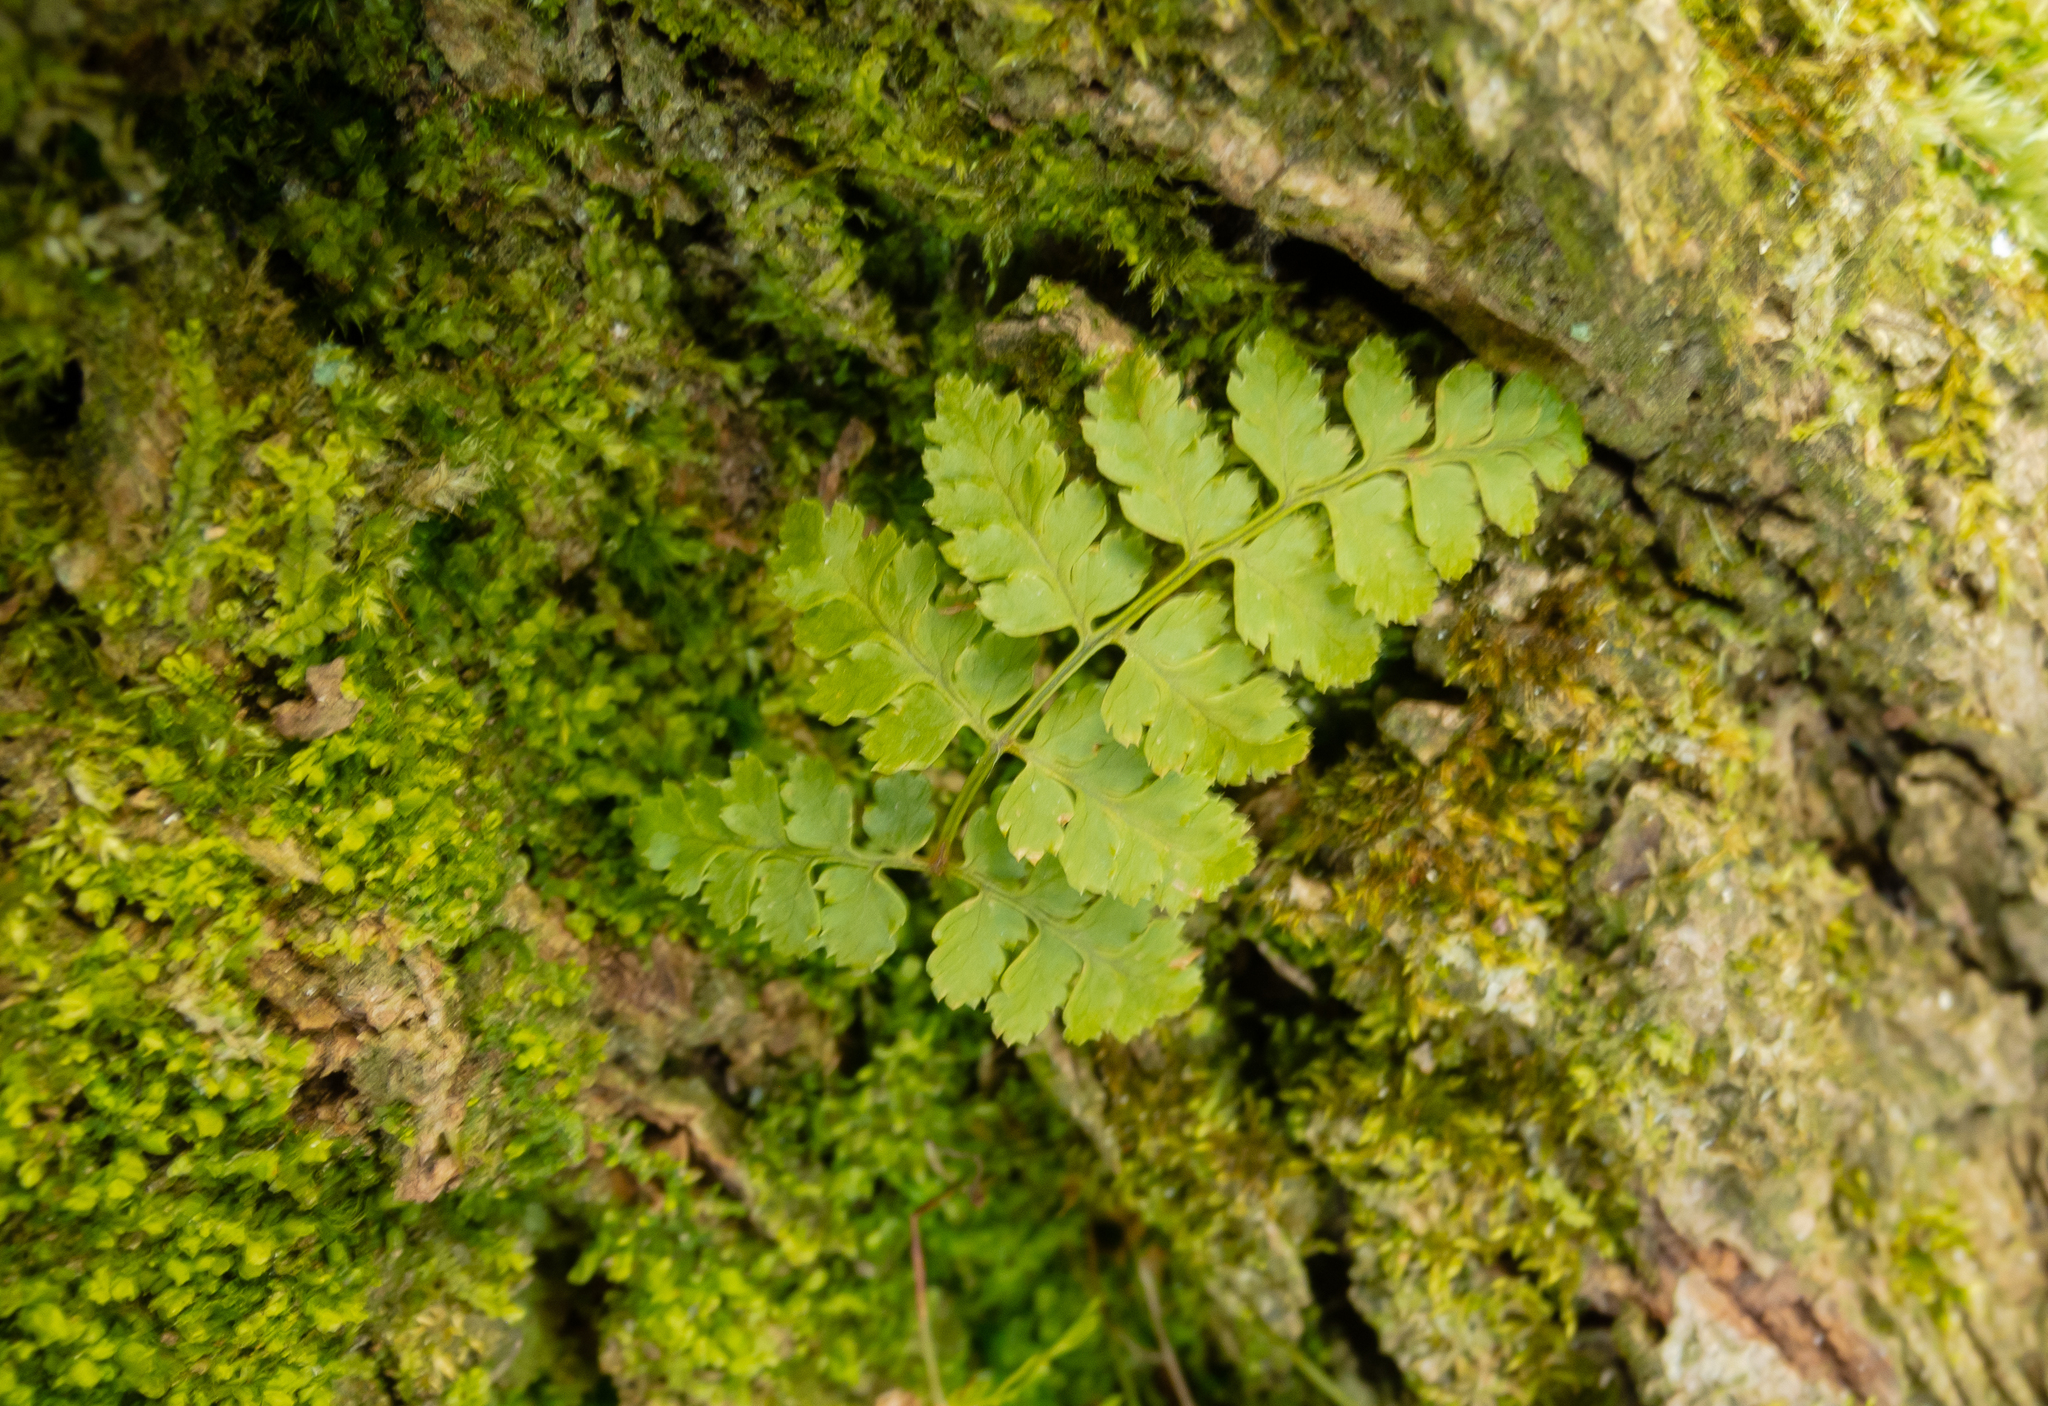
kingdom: Plantae
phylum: Tracheophyta
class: Polypodiopsida
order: Polypodiales
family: Dryopteridaceae
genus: Dryopteris
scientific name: Dryopteris intermedia
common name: Evergreen wood fern
